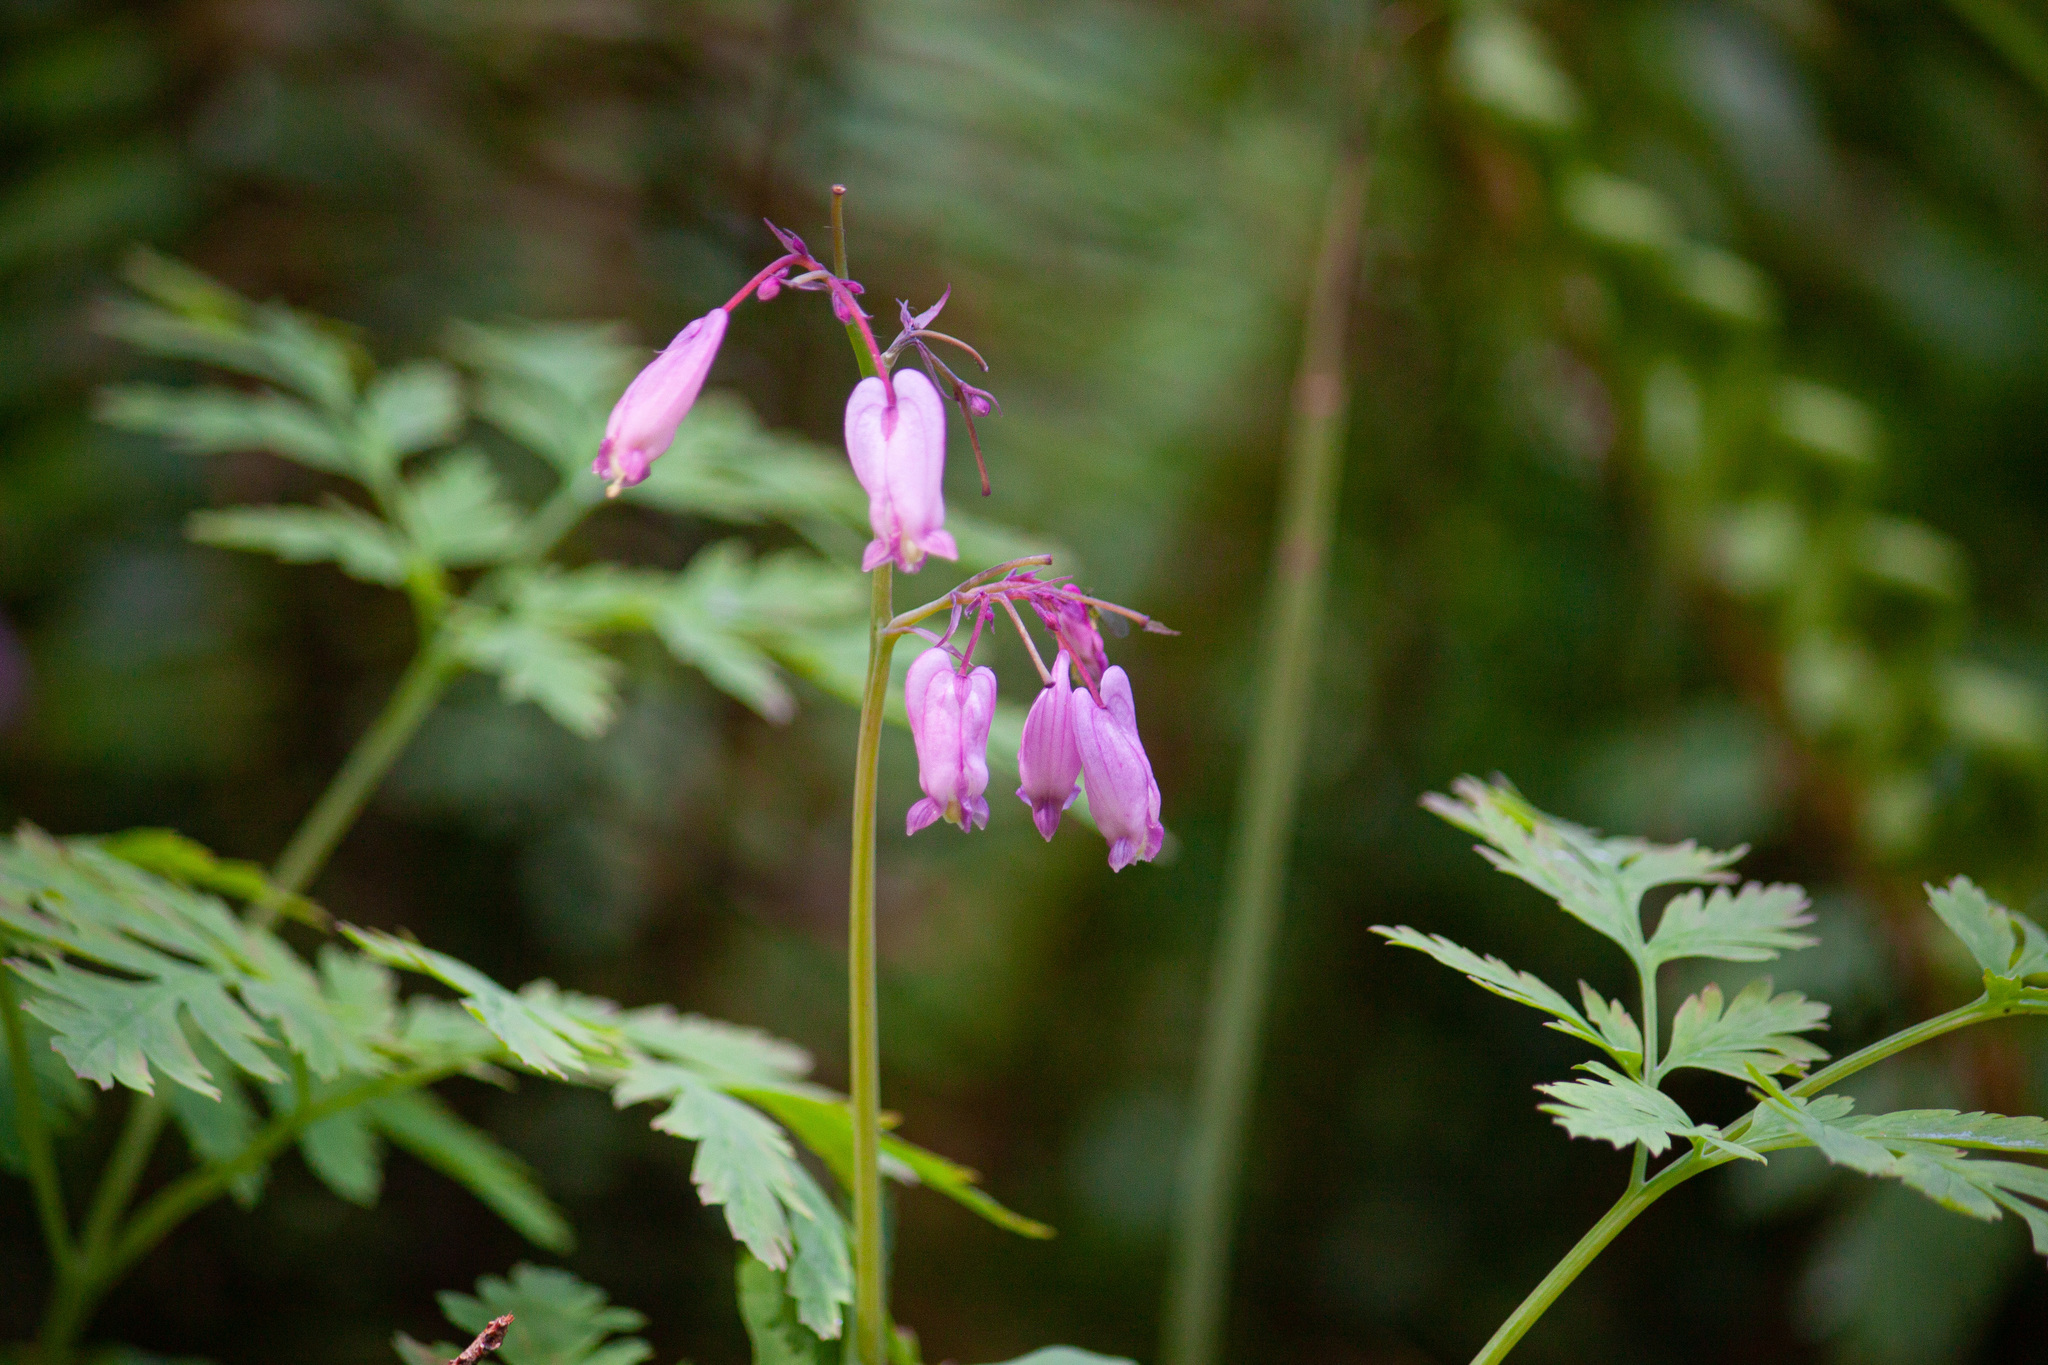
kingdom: Plantae
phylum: Tracheophyta
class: Magnoliopsida
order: Ranunculales
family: Papaveraceae
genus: Dicentra
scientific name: Dicentra formosa
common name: Bleeding-heart
